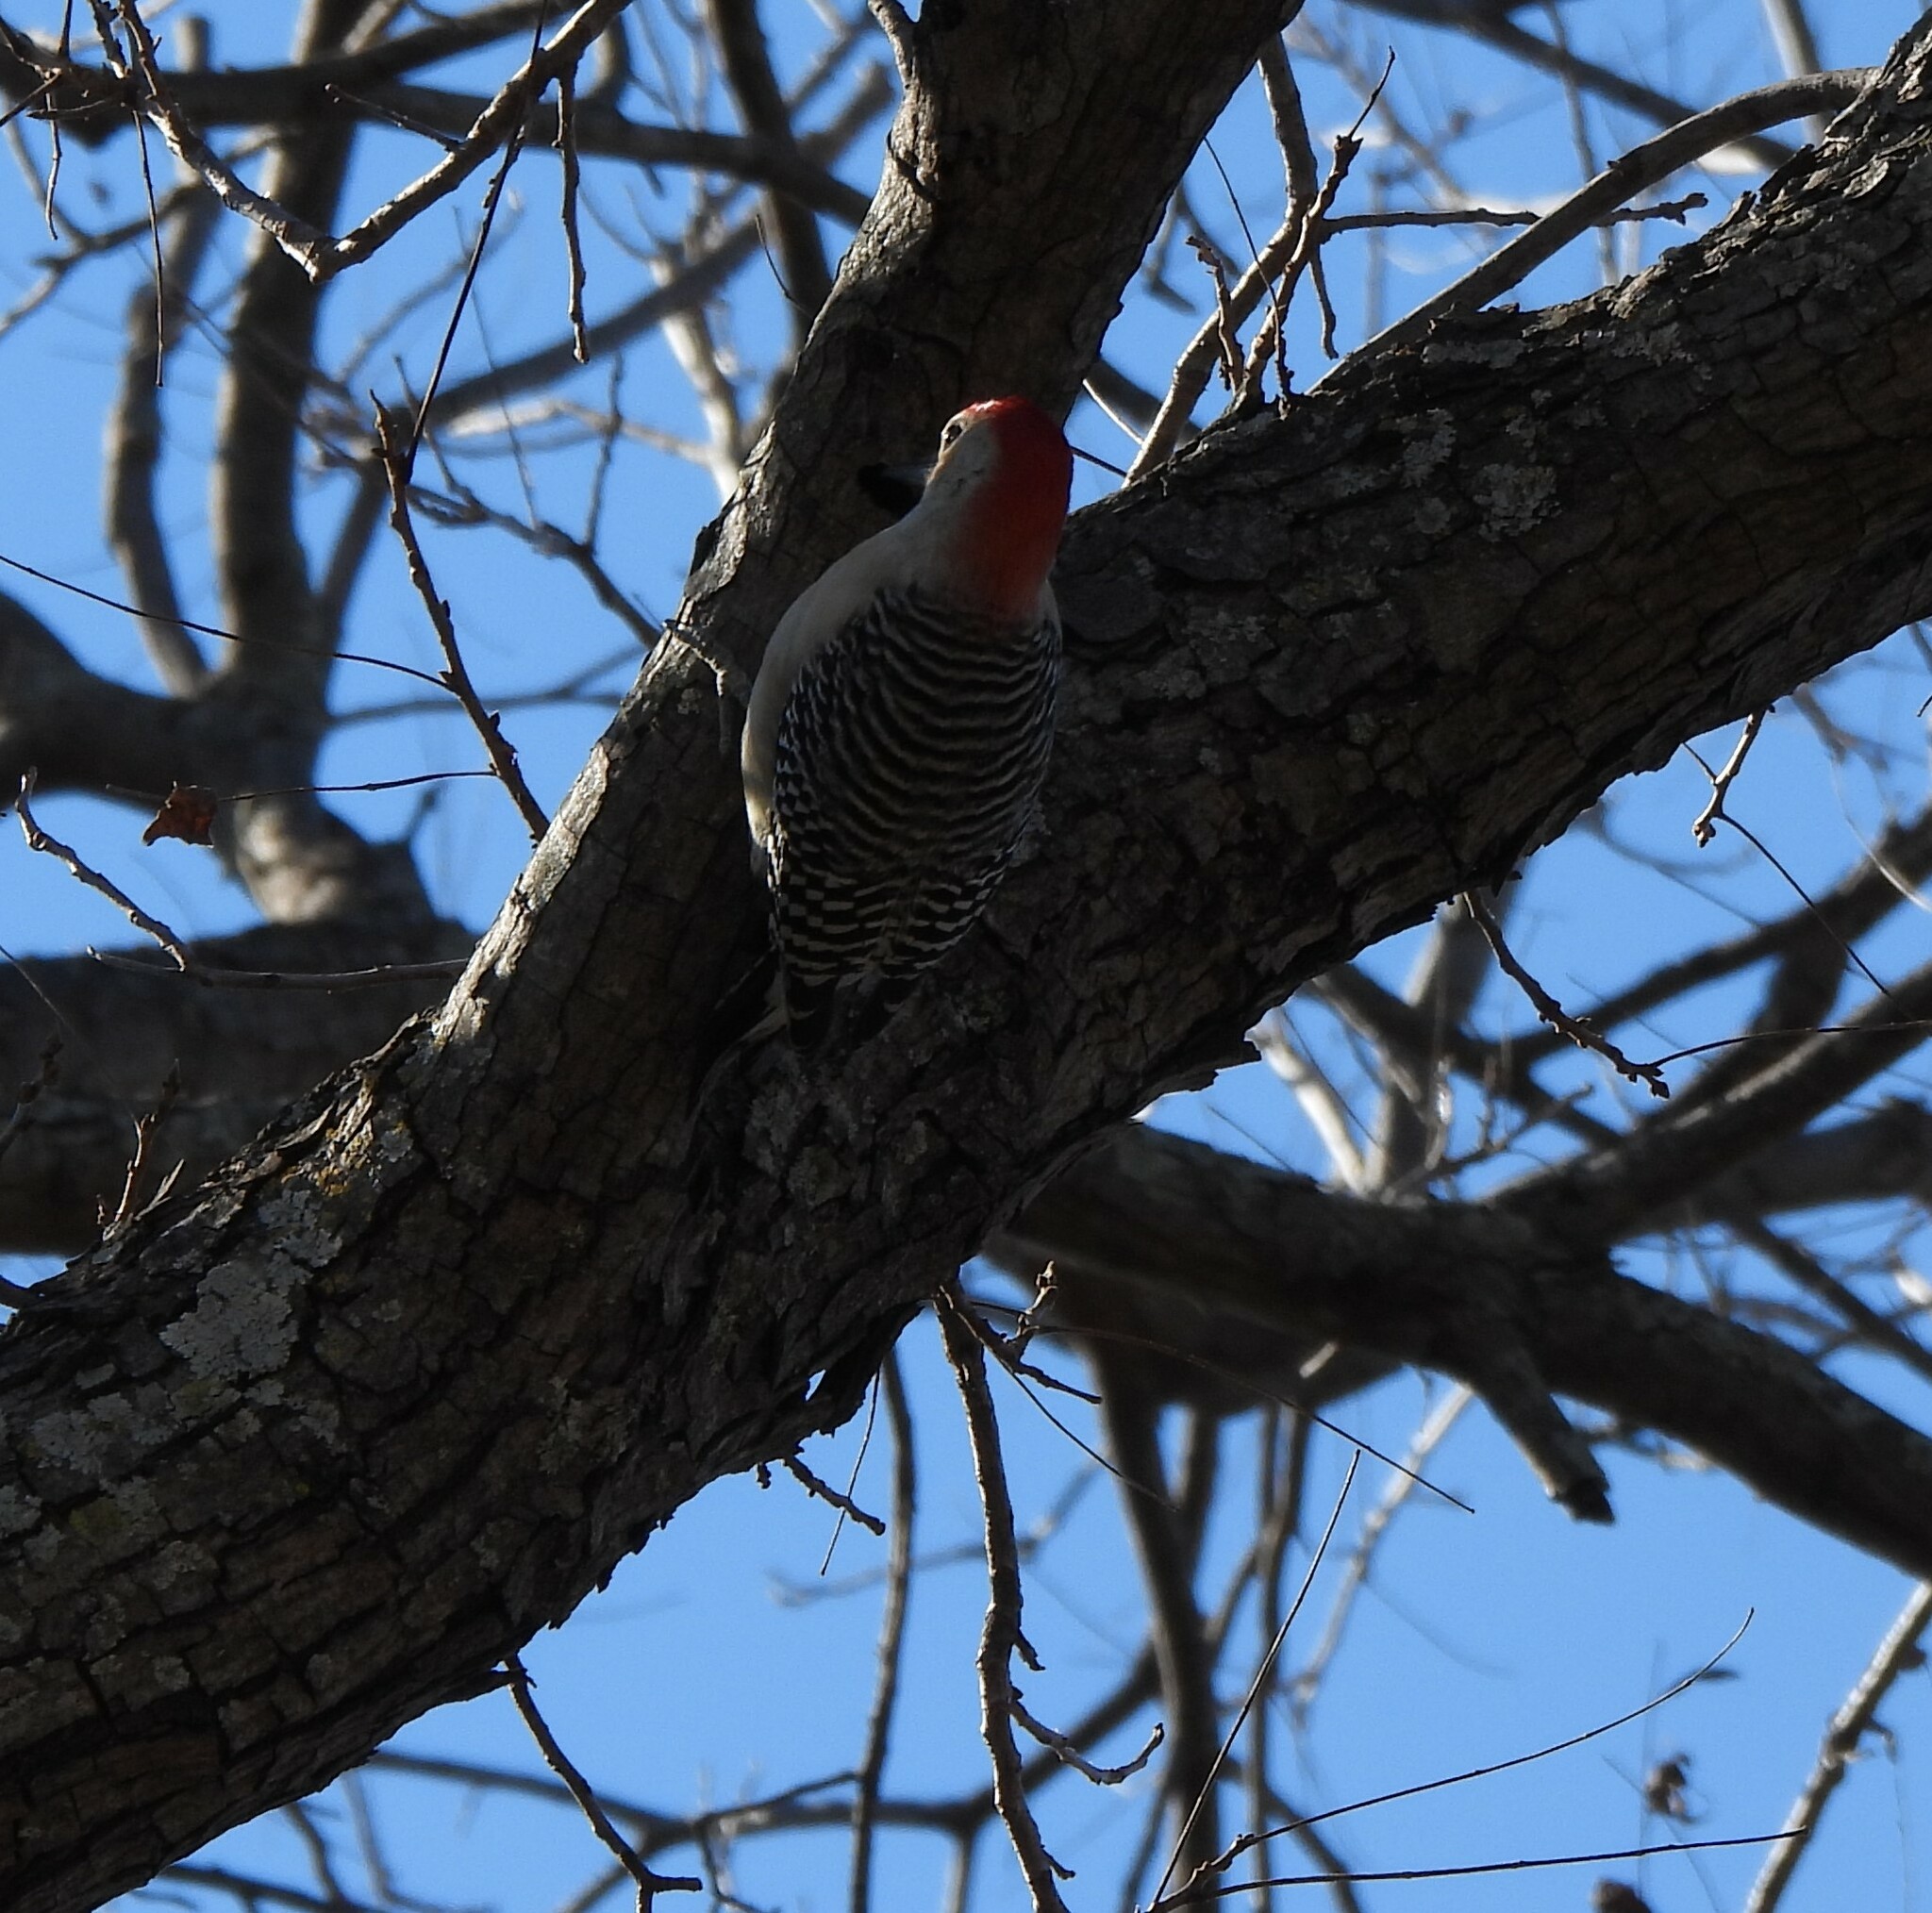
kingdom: Animalia
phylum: Chordata
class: Aves
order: Piciformes
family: Picidae
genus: Melanerpes
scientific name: Melanerpes carolinus
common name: Red-bellied woodpecker
